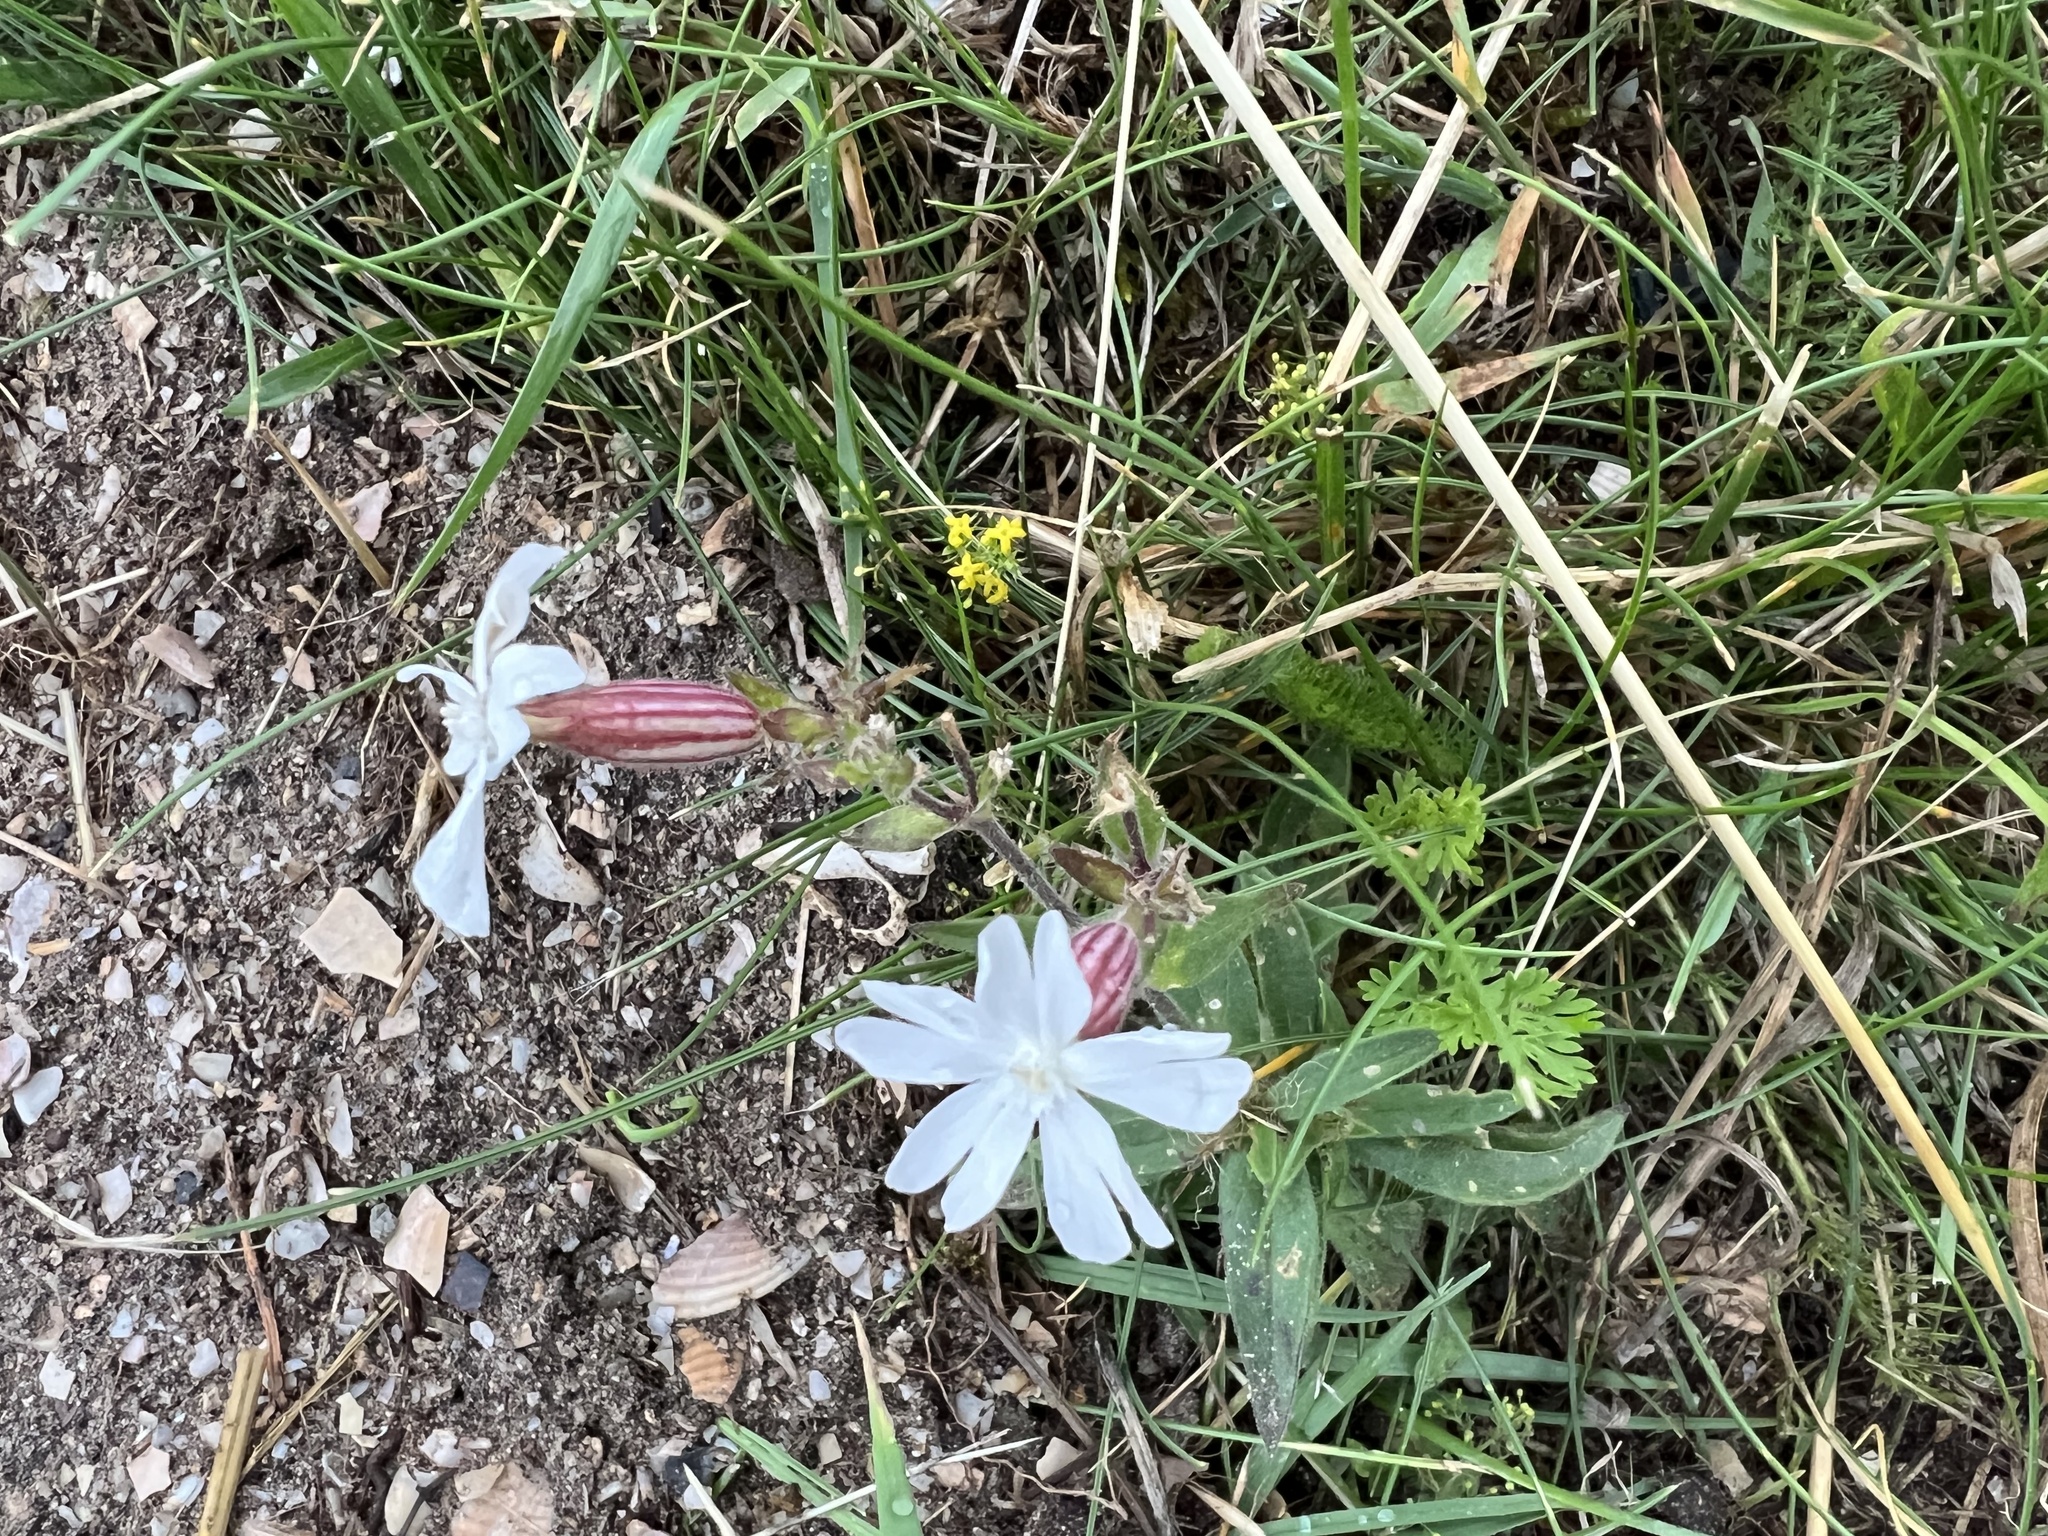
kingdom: Plantae
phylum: Tracheophyta
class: Magnoliopsida
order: Caryophyllales
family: Caryophyllaceae
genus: Silene
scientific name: Silene latifolia
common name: White campion
